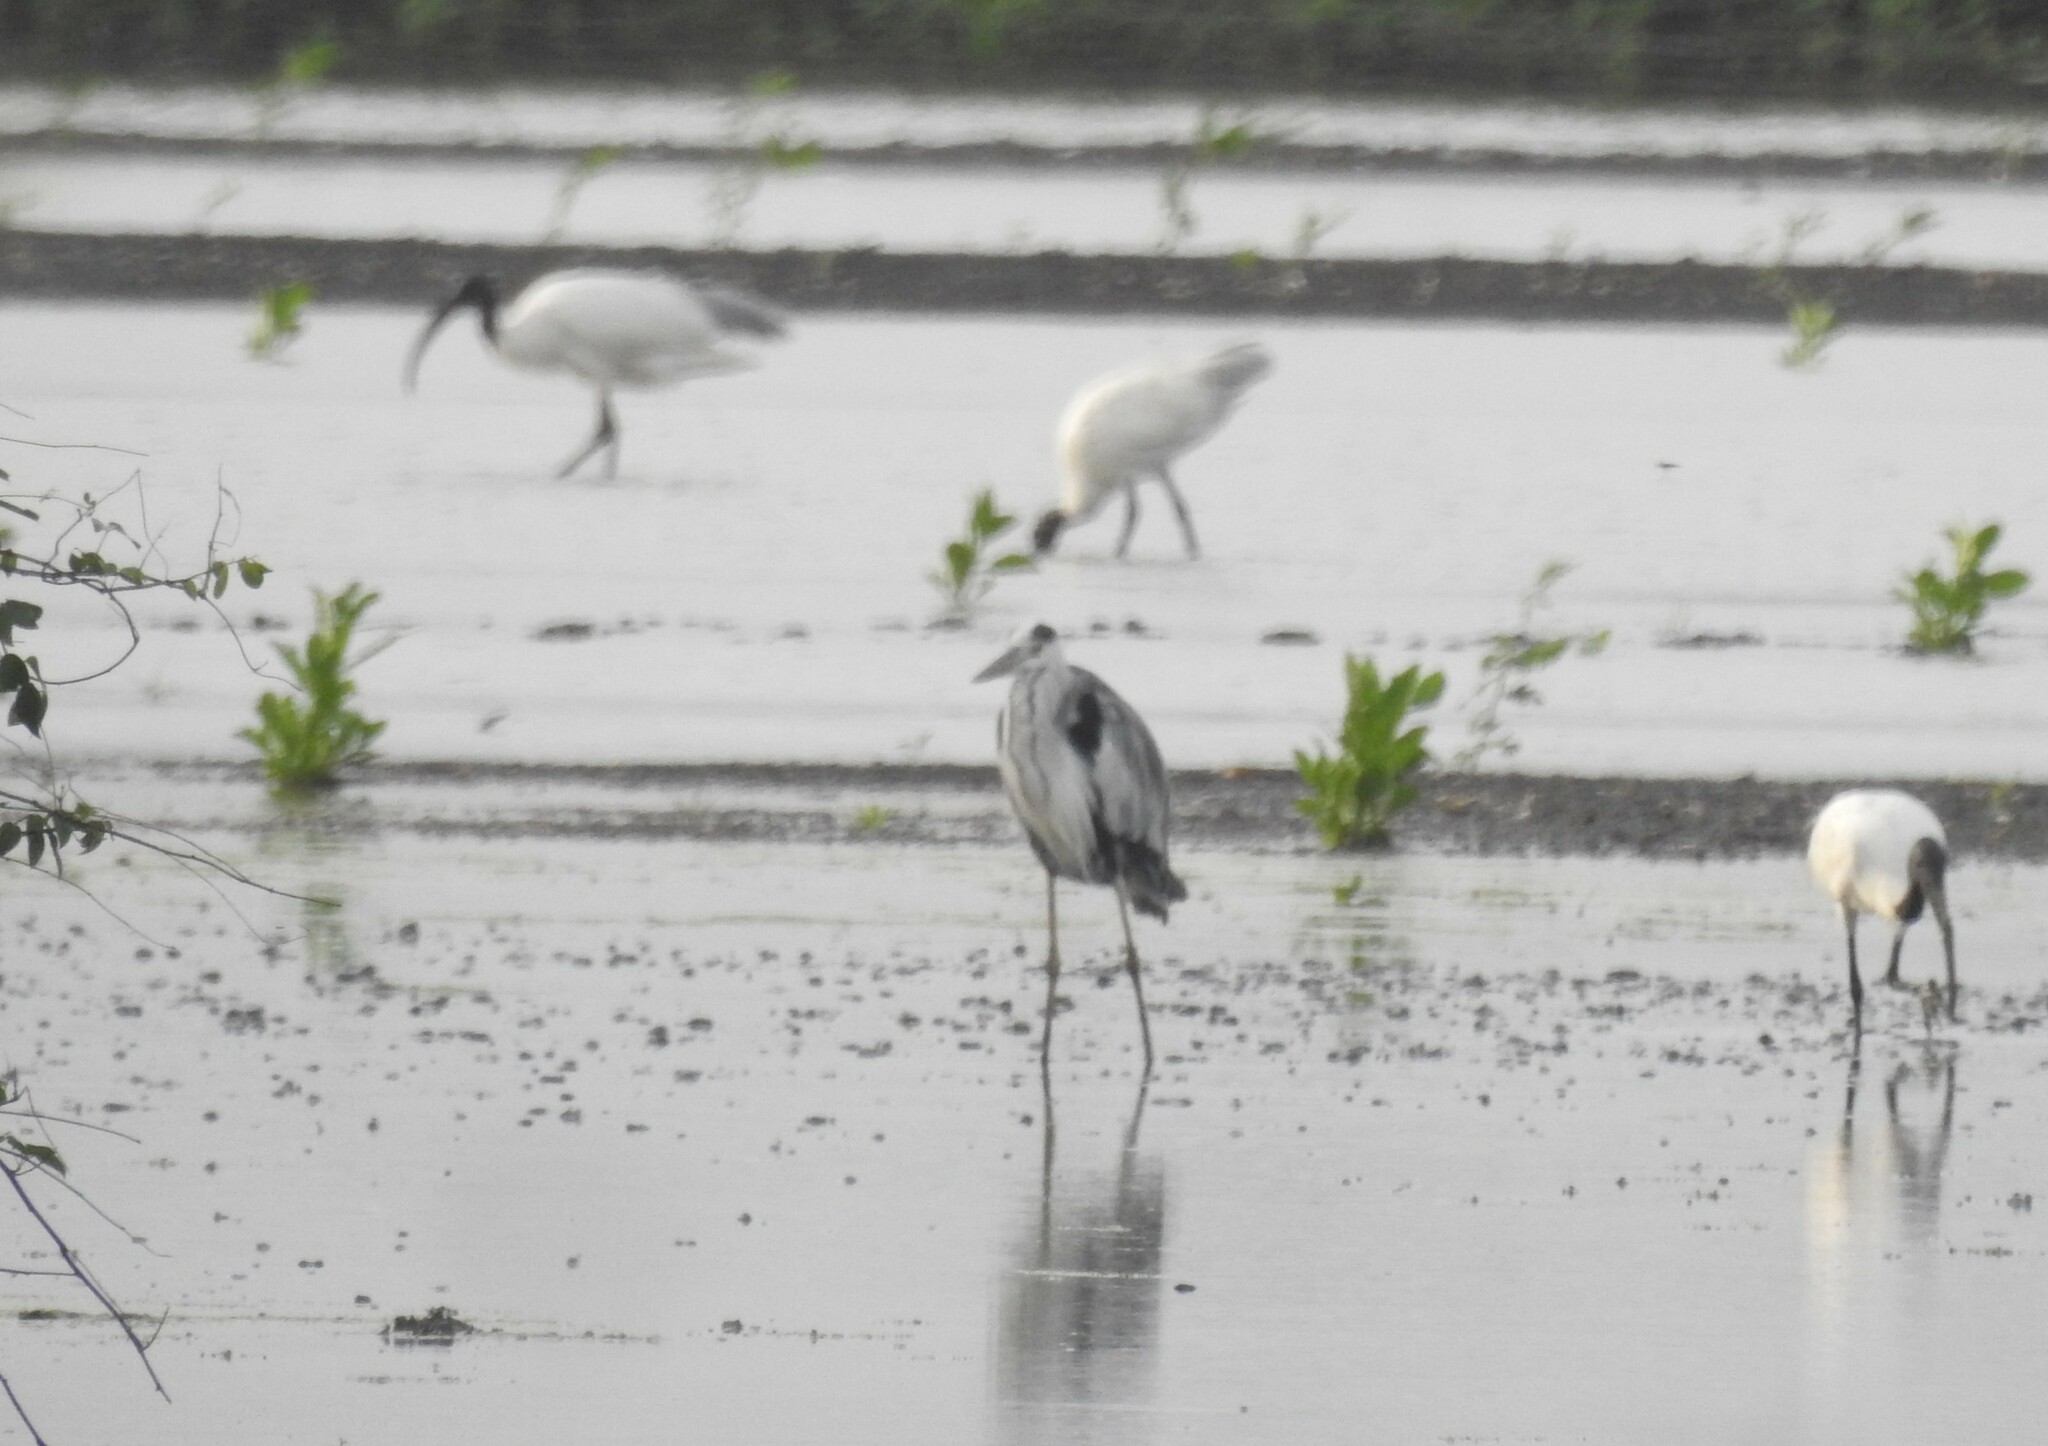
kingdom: Animalia
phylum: Chordata
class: Aves
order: Pelecaniformes
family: Ardeidae
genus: Ardea
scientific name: Ardea cinerea
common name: Grey heron
